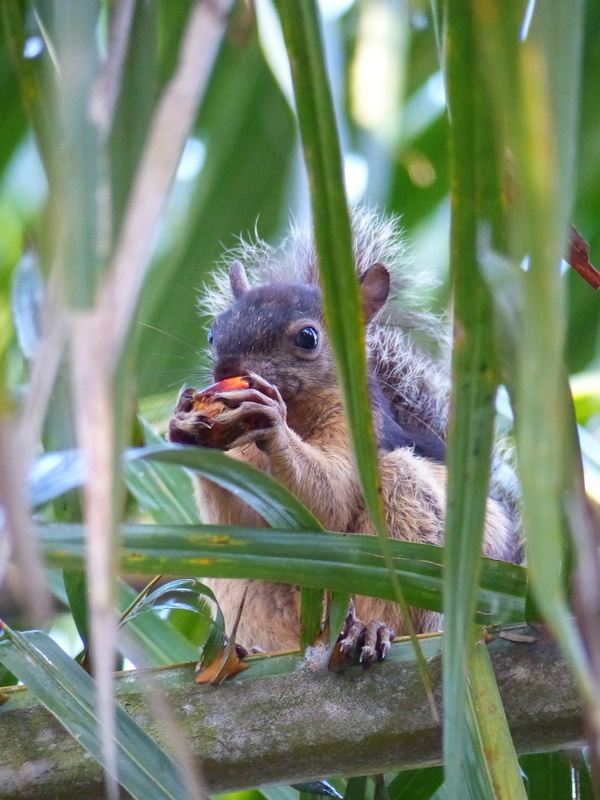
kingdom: Animalia
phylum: Chordata
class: Mammalia
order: Rodentia
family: Sciuridae
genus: Sciurus
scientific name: Sciurus variegatoides
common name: Variegated squirrel
